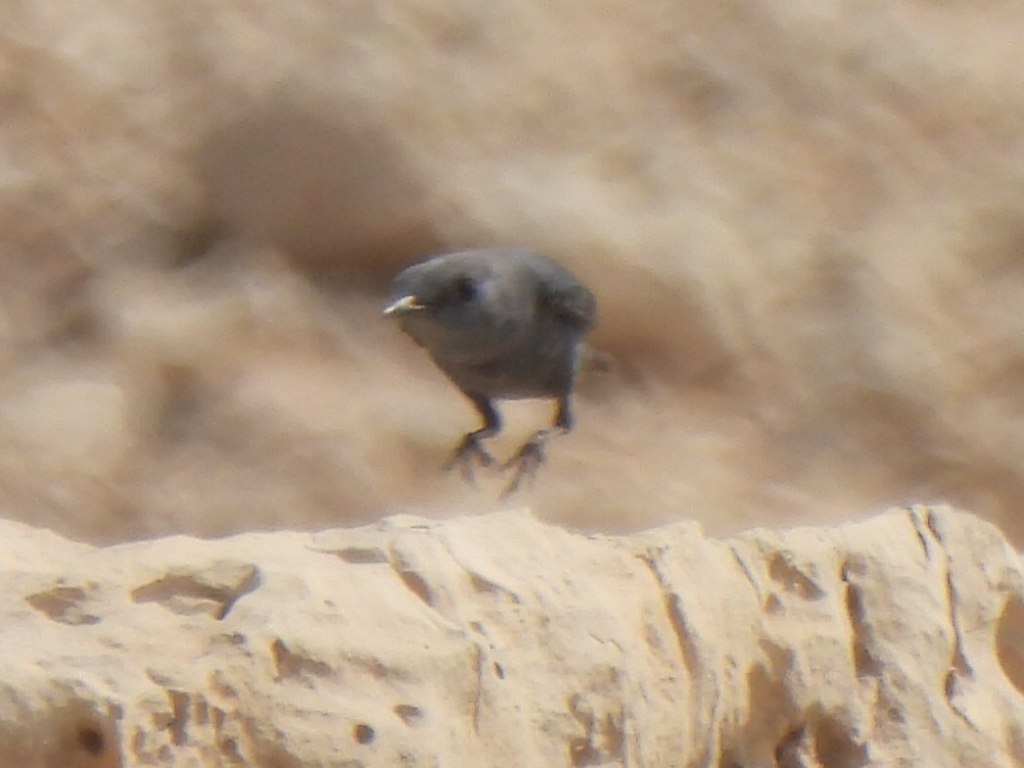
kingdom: Animalia
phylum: Chordata
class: Aves
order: Passeriformes
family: Muscicapidae
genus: Monticola
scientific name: Monticola solitarius
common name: Blue rock thrush
